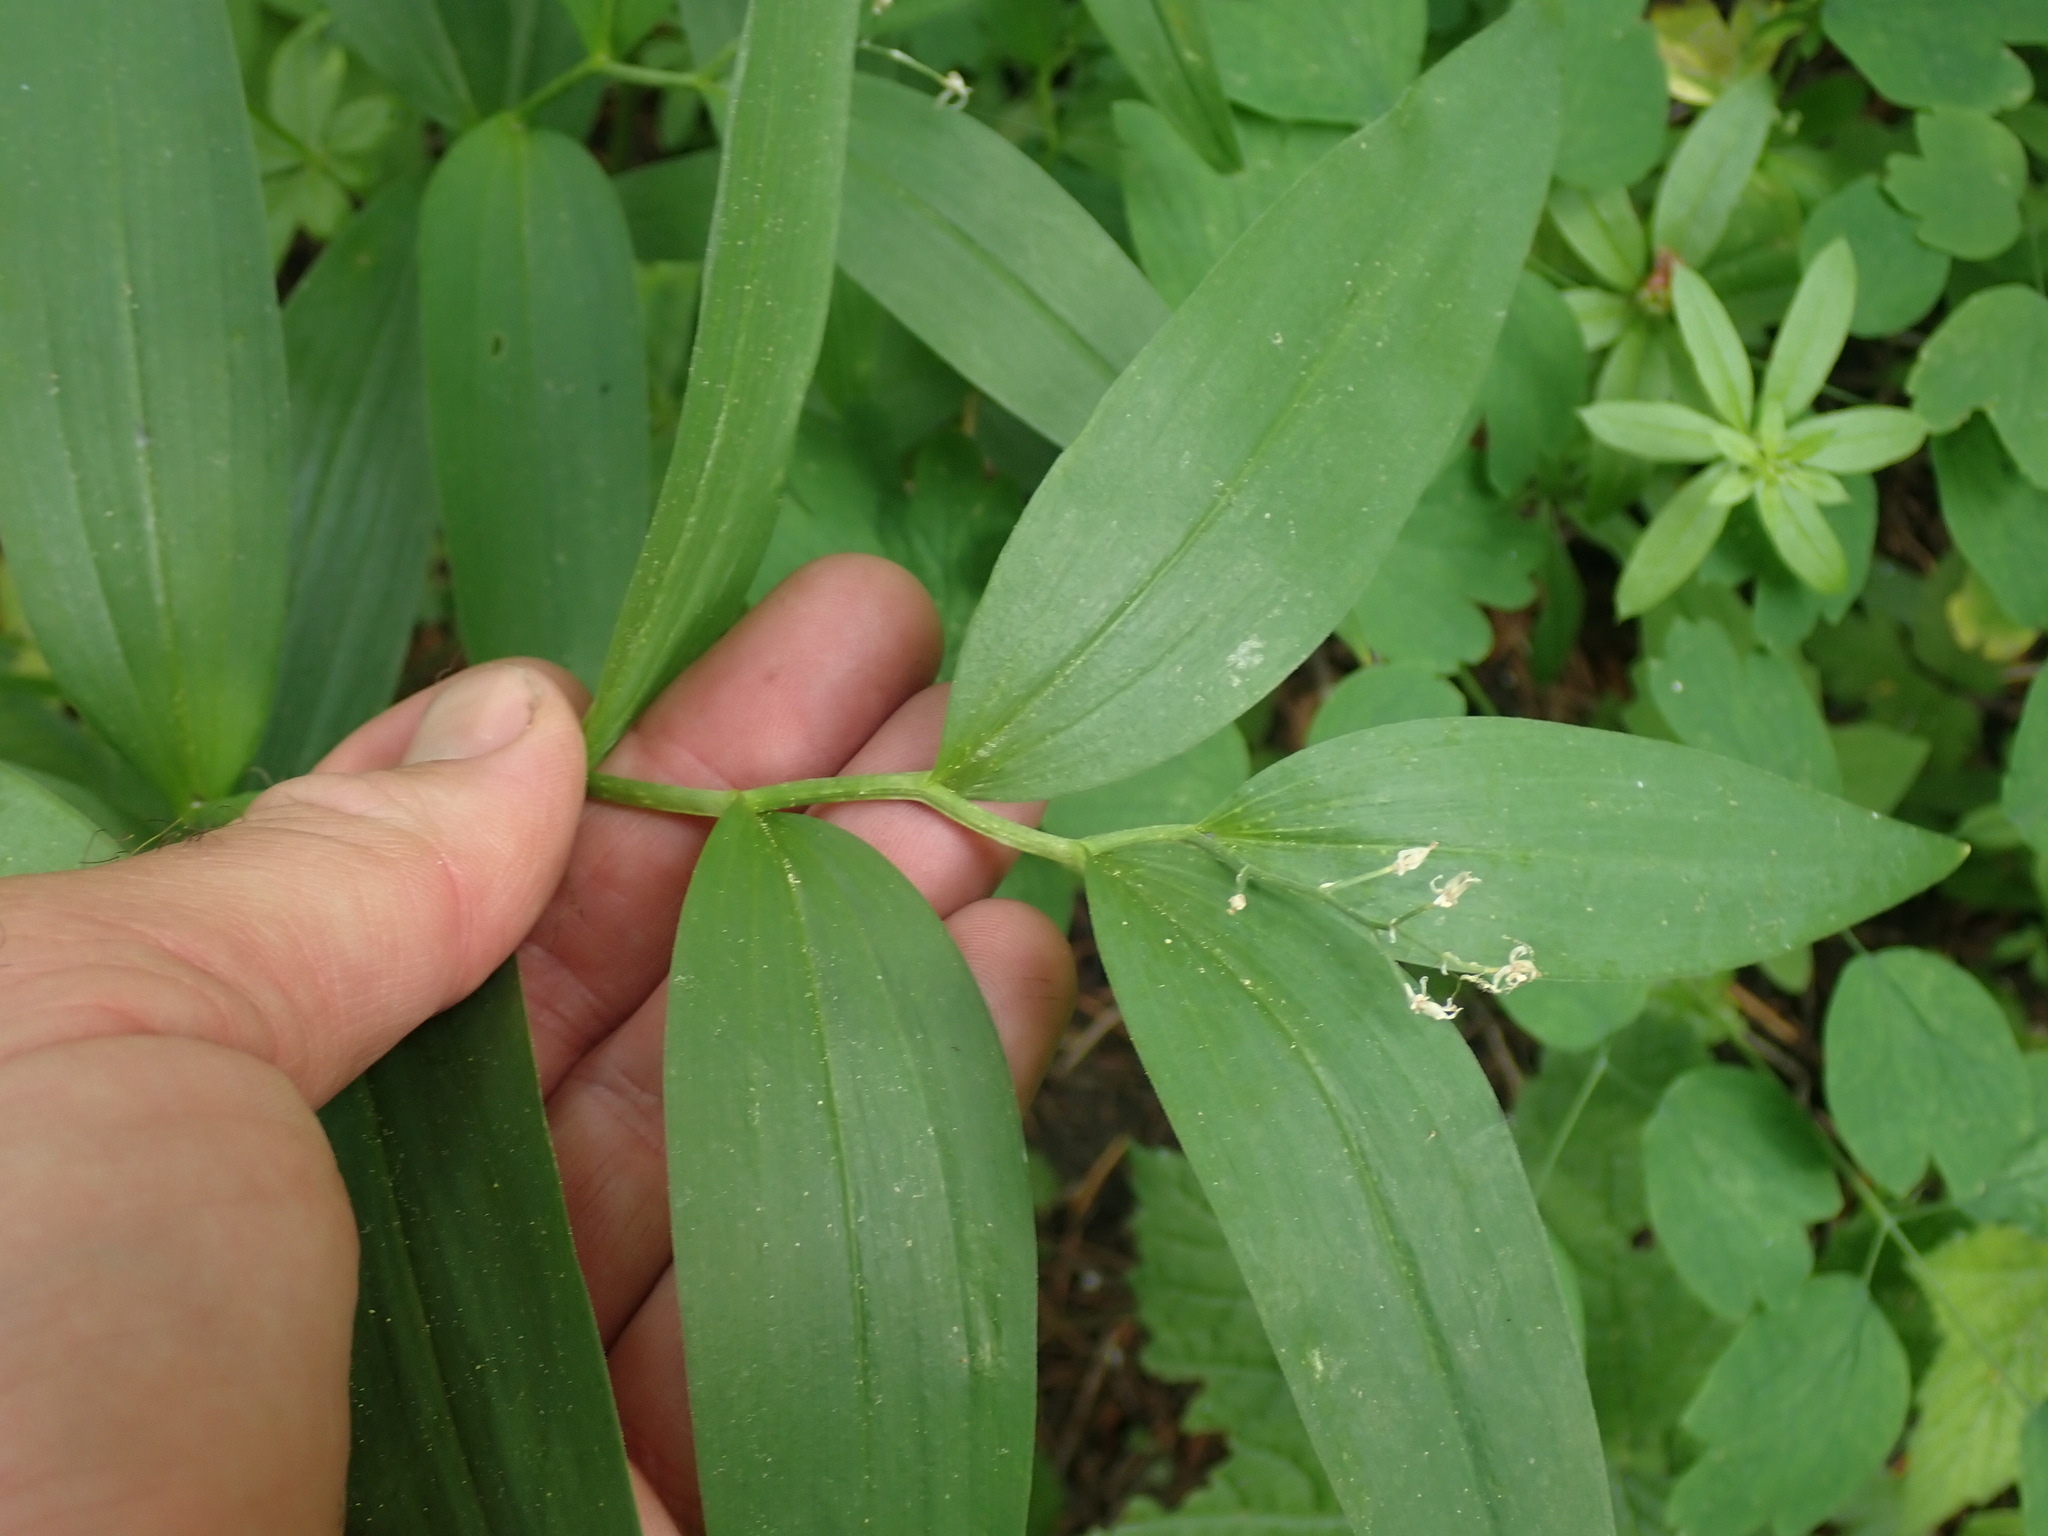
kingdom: Plantae
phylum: Tracheophyta
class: Liliopsida
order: Asparagales
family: Asparagaceae
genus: Maianthemum
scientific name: Maianthemum stellatum
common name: Little false solomon's seal
